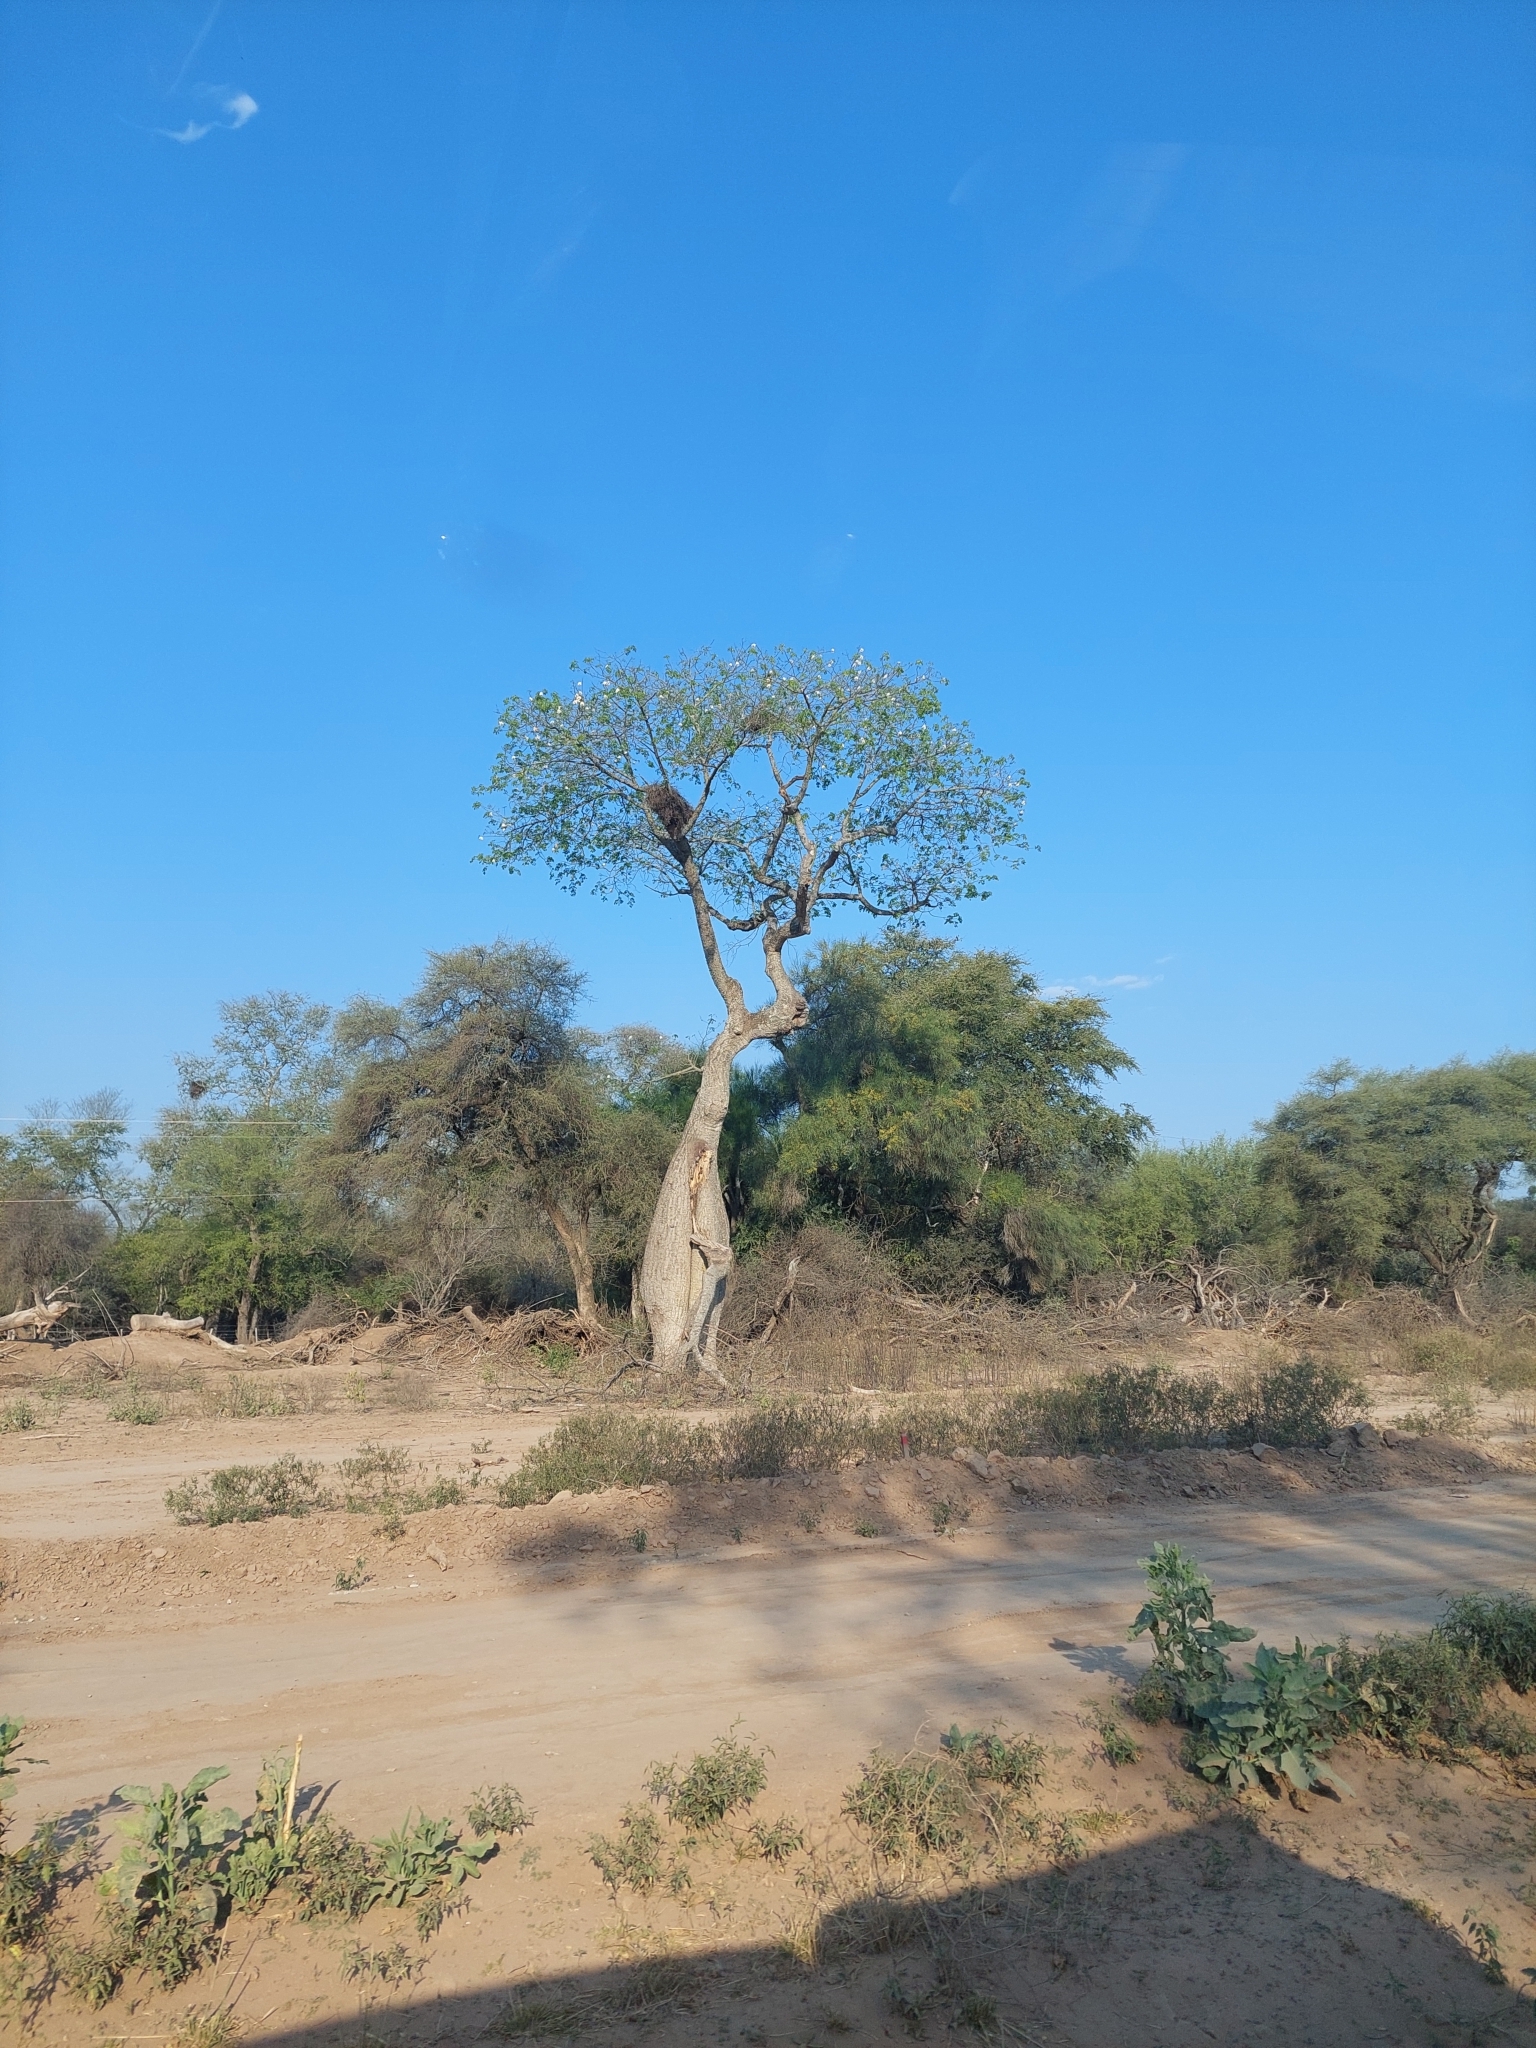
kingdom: Plantae
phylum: Tracheophyta
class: Magnoliopsida
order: Malvales
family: Malvaceae
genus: Ceiba
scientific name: Ceiba chodatii
